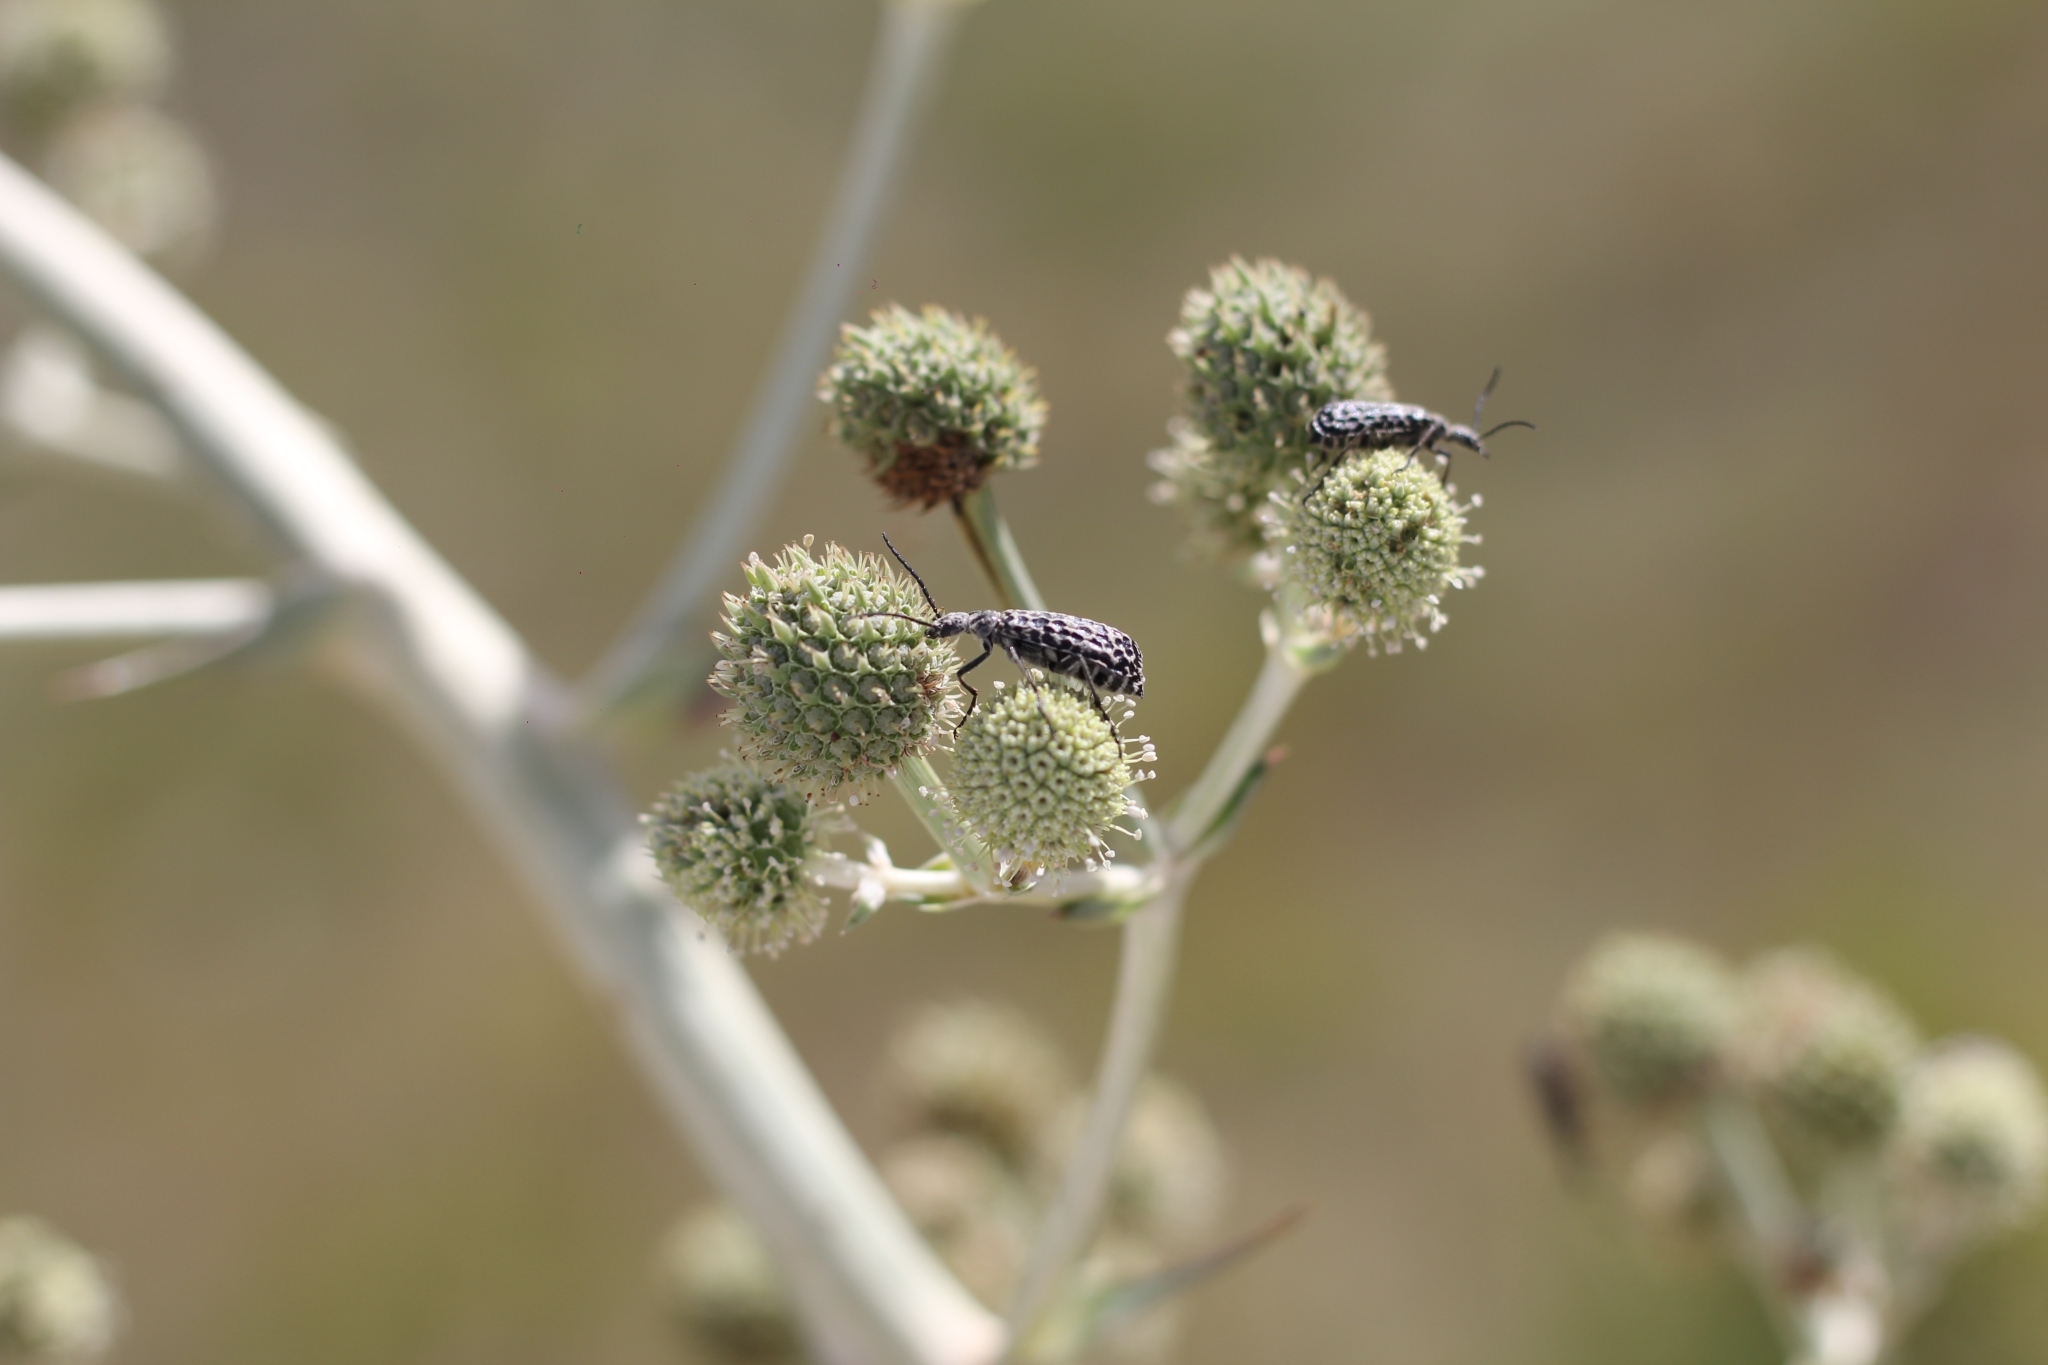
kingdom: Animalia
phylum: Arthropoda
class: Insecta
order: Coleoptera
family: Meloidae
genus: Epicauta
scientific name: Epicauta
